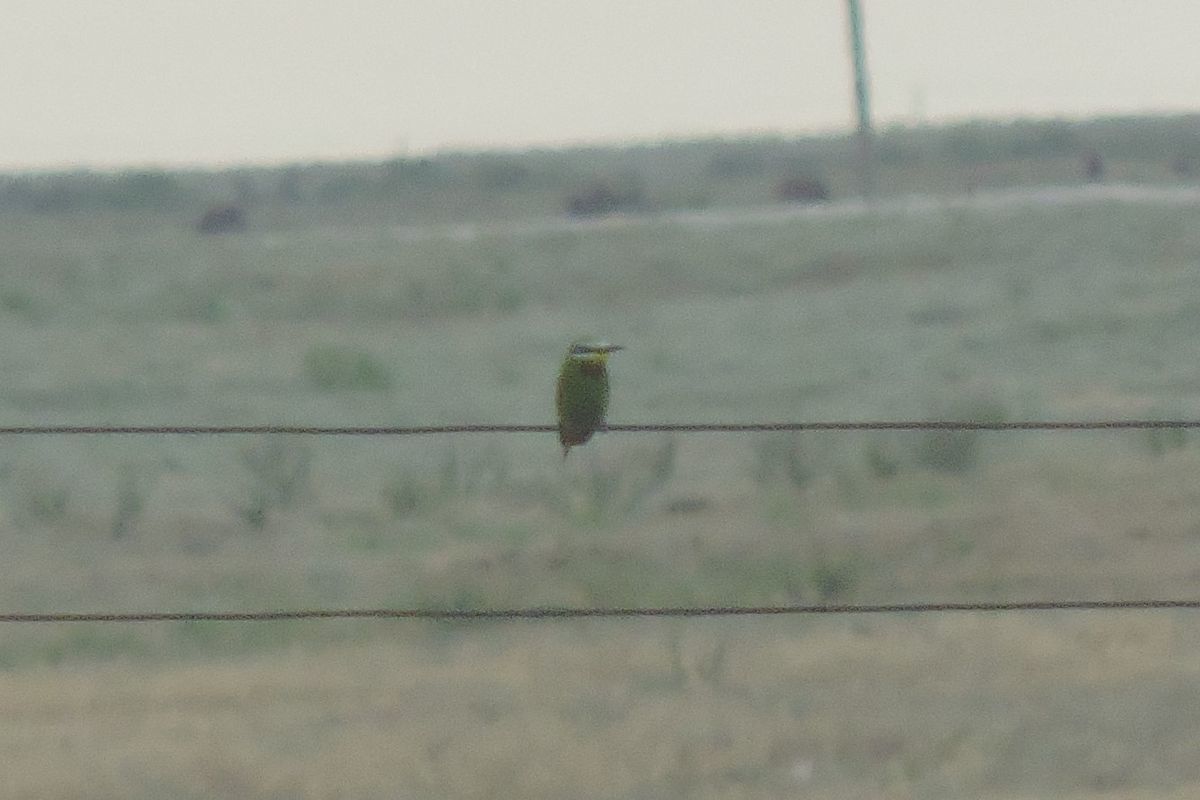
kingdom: Animalia
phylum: Chordata
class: Aves
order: Coraciiformes
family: Meropidae
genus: Merops
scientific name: Merops persicus
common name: Blue-cheeked bee-eater
